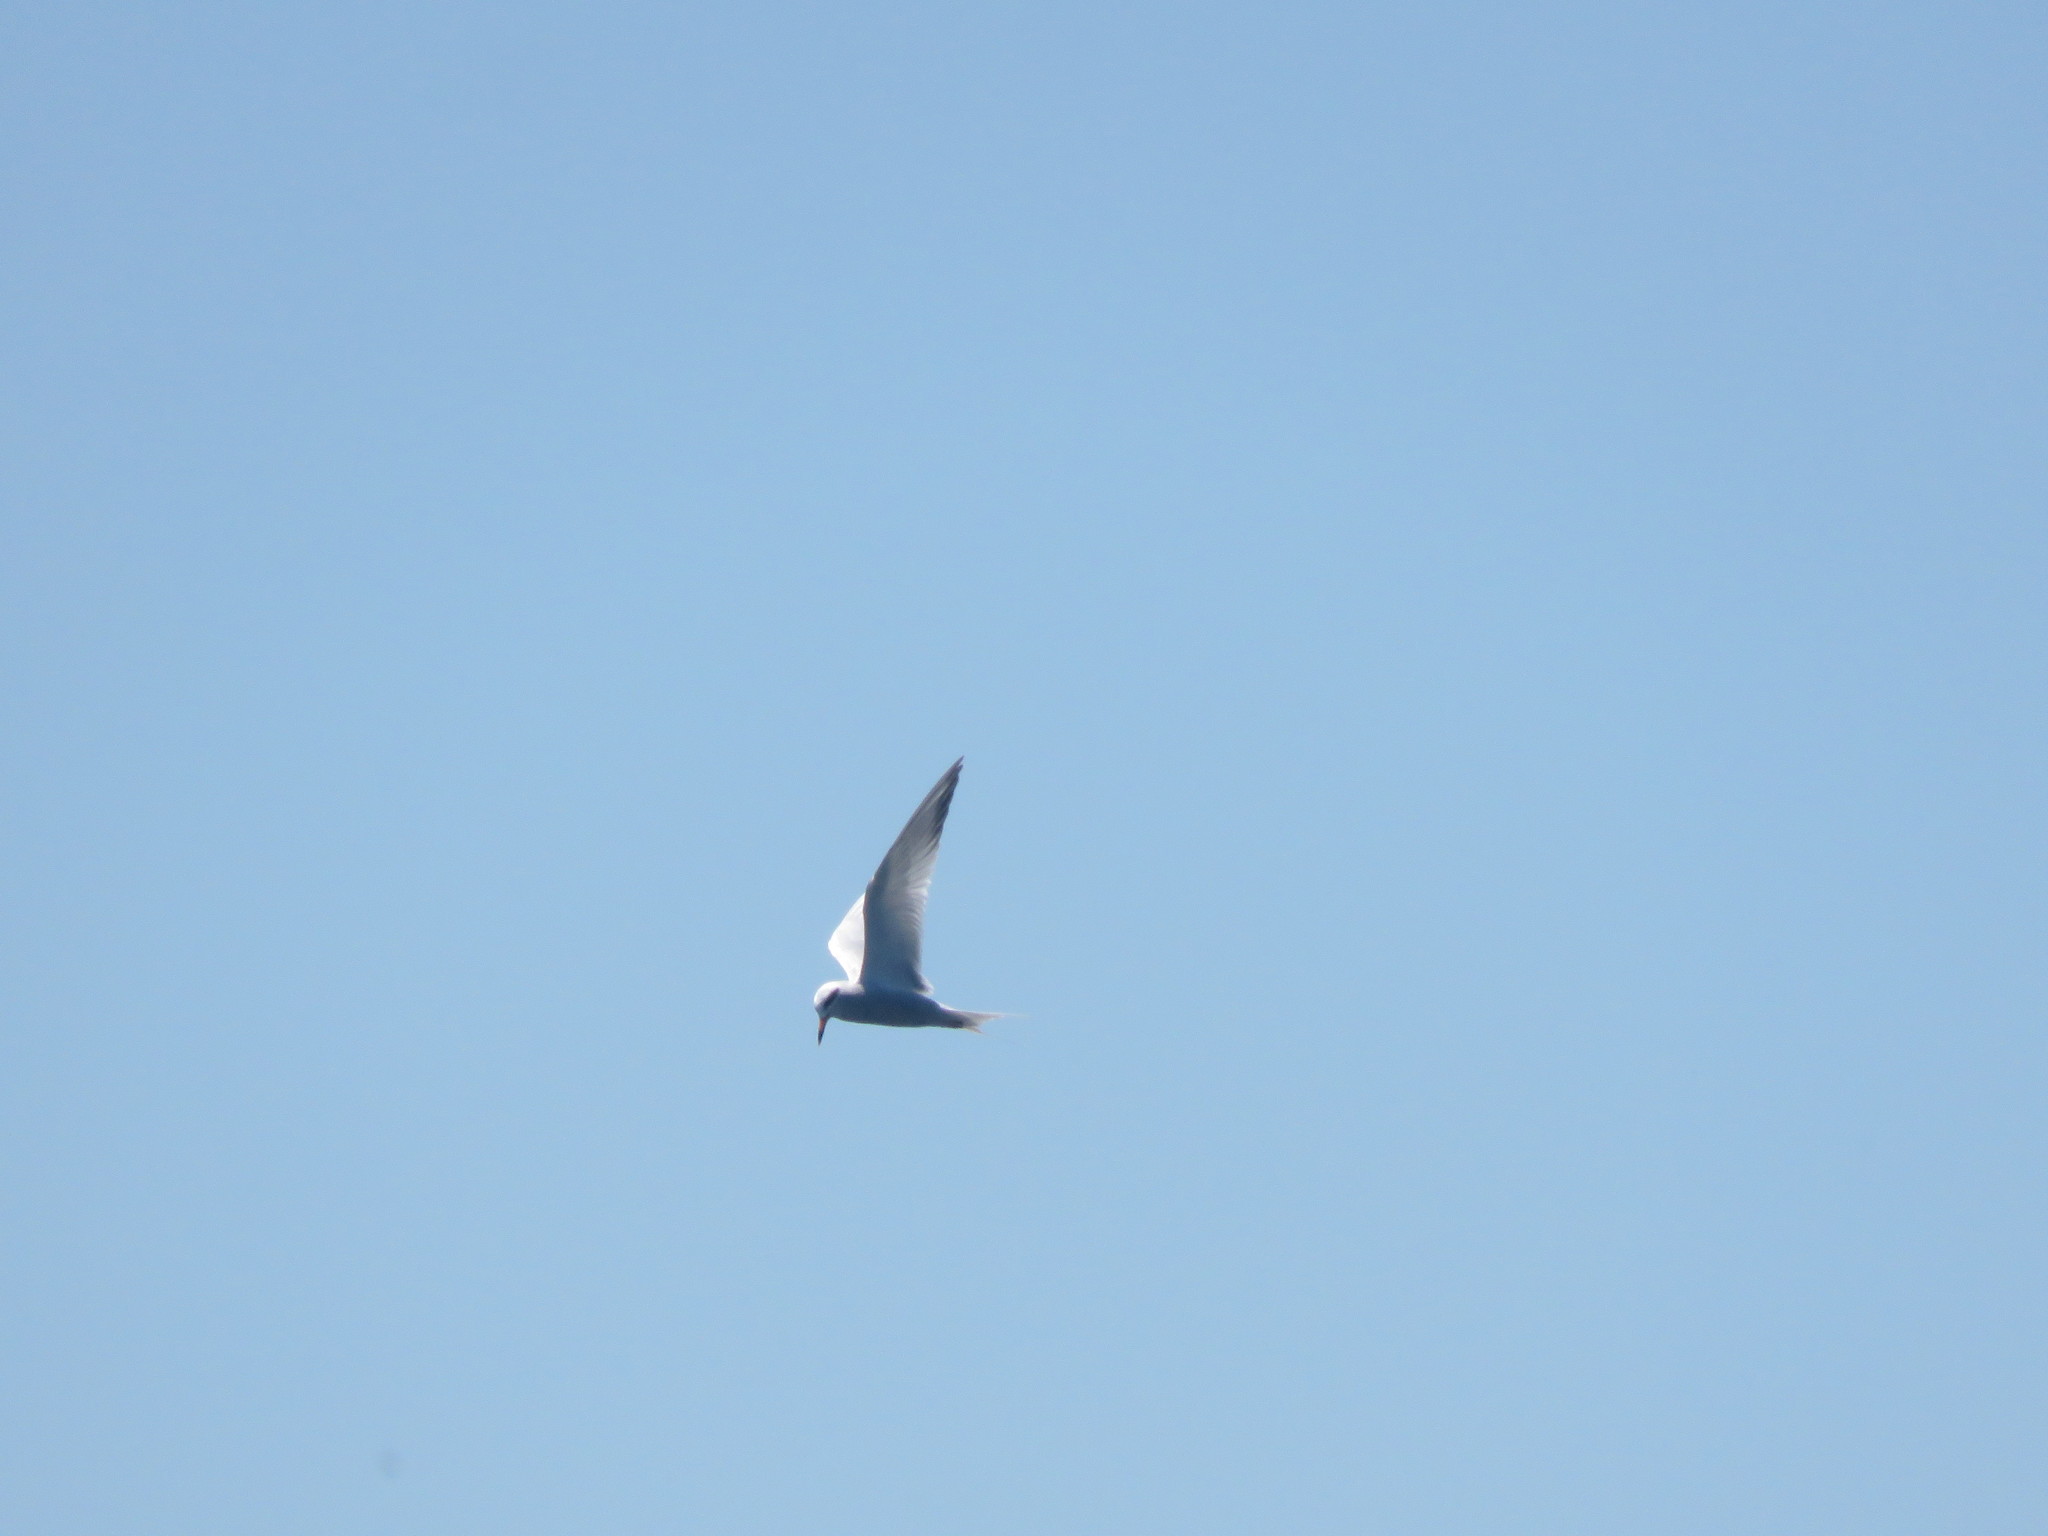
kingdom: Animalia
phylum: Chordata
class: Aves
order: Charadriiformes
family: Laridae
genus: Sterna
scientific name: Sterna trudeaui
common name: Snowy-crowned tern
